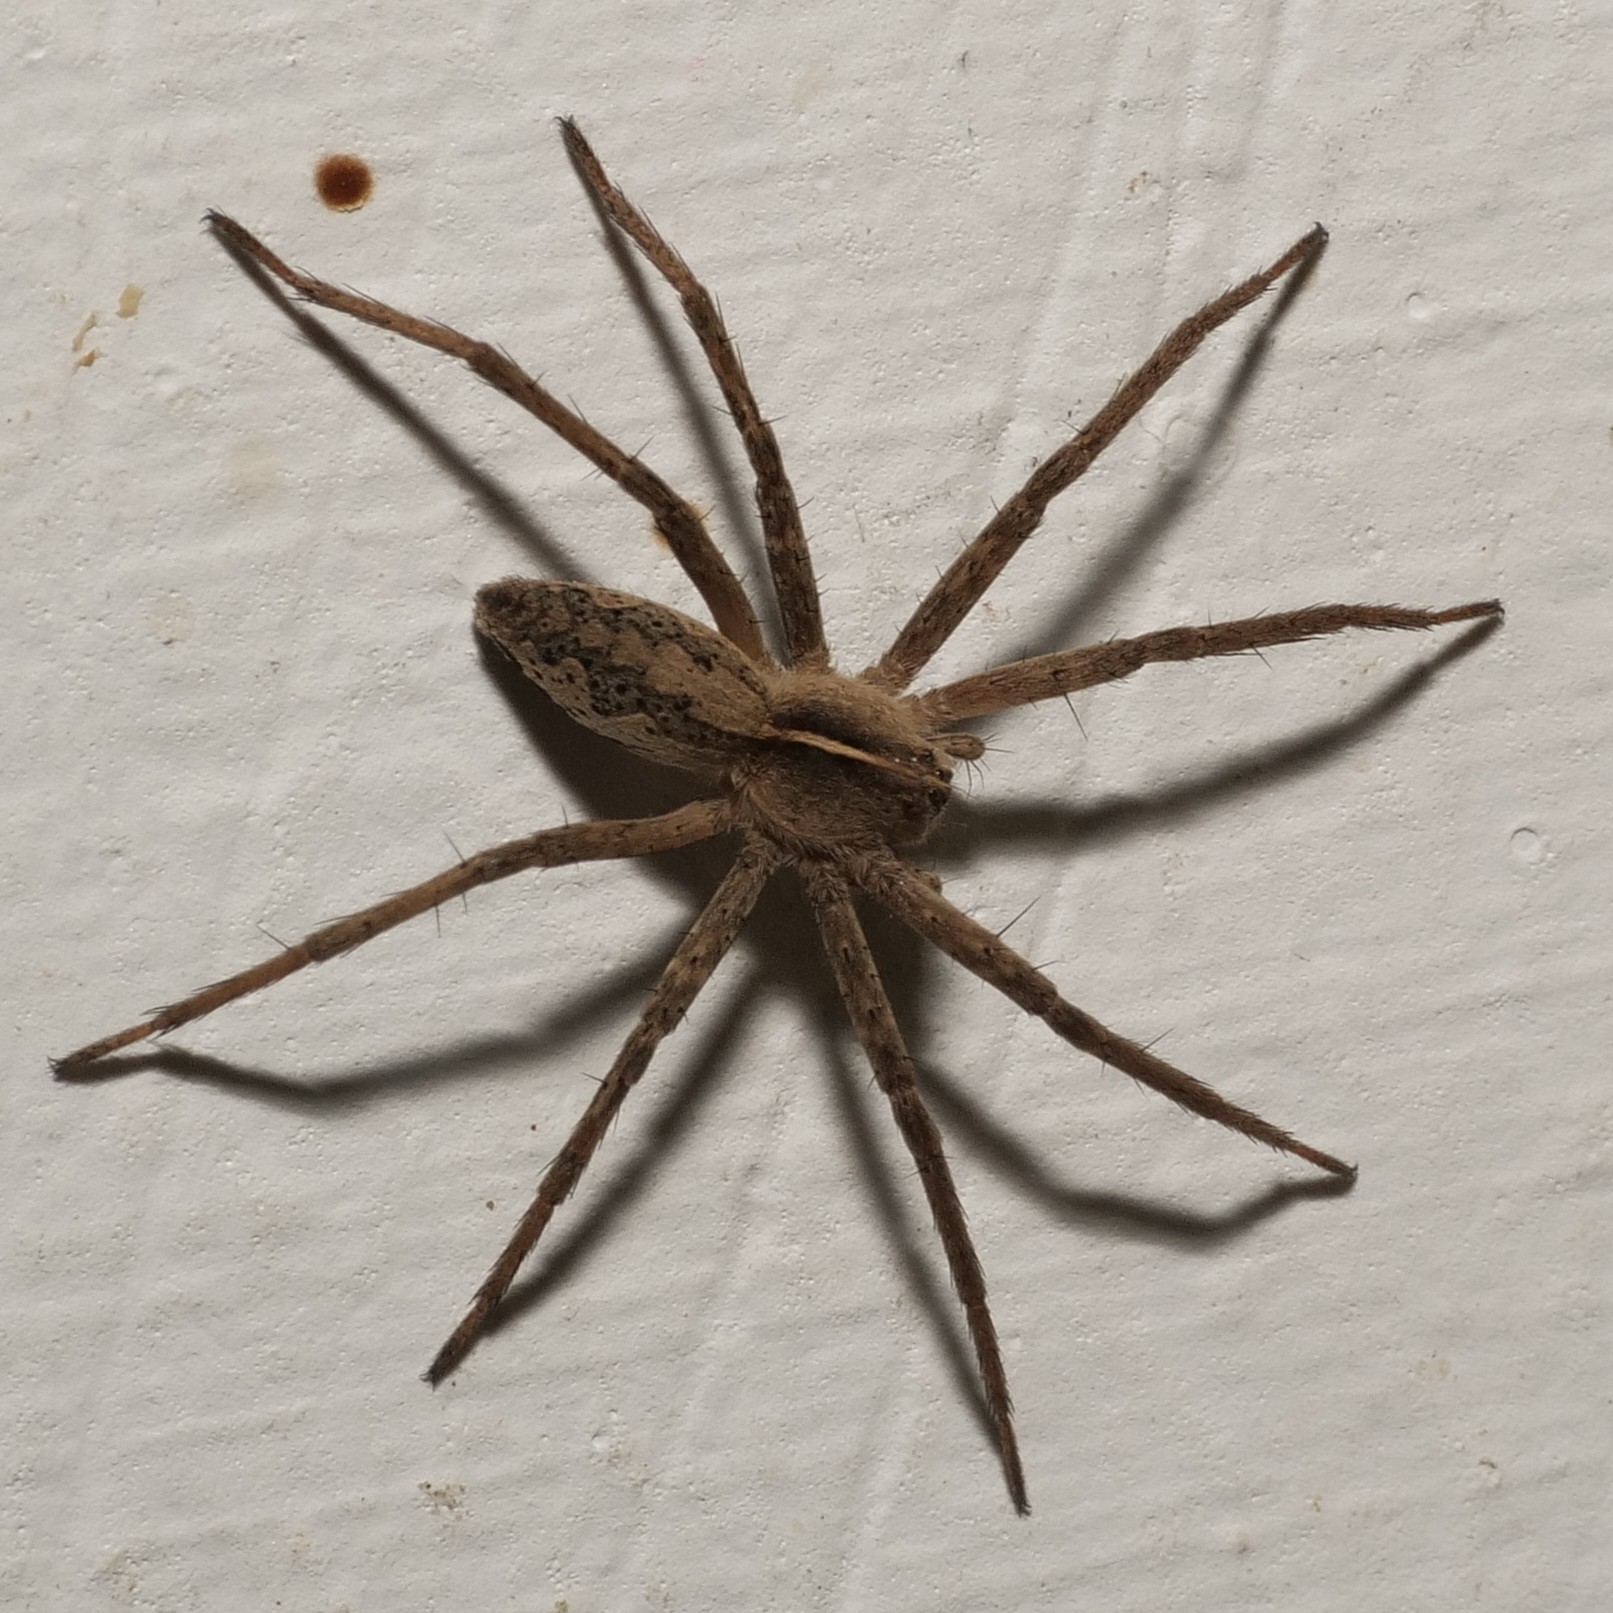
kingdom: Animalia
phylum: Arthropoda
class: Arachnida
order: Araneae
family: Pisauridae
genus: Pisaura
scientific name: Pisaura mirabilis
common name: Tent spider
